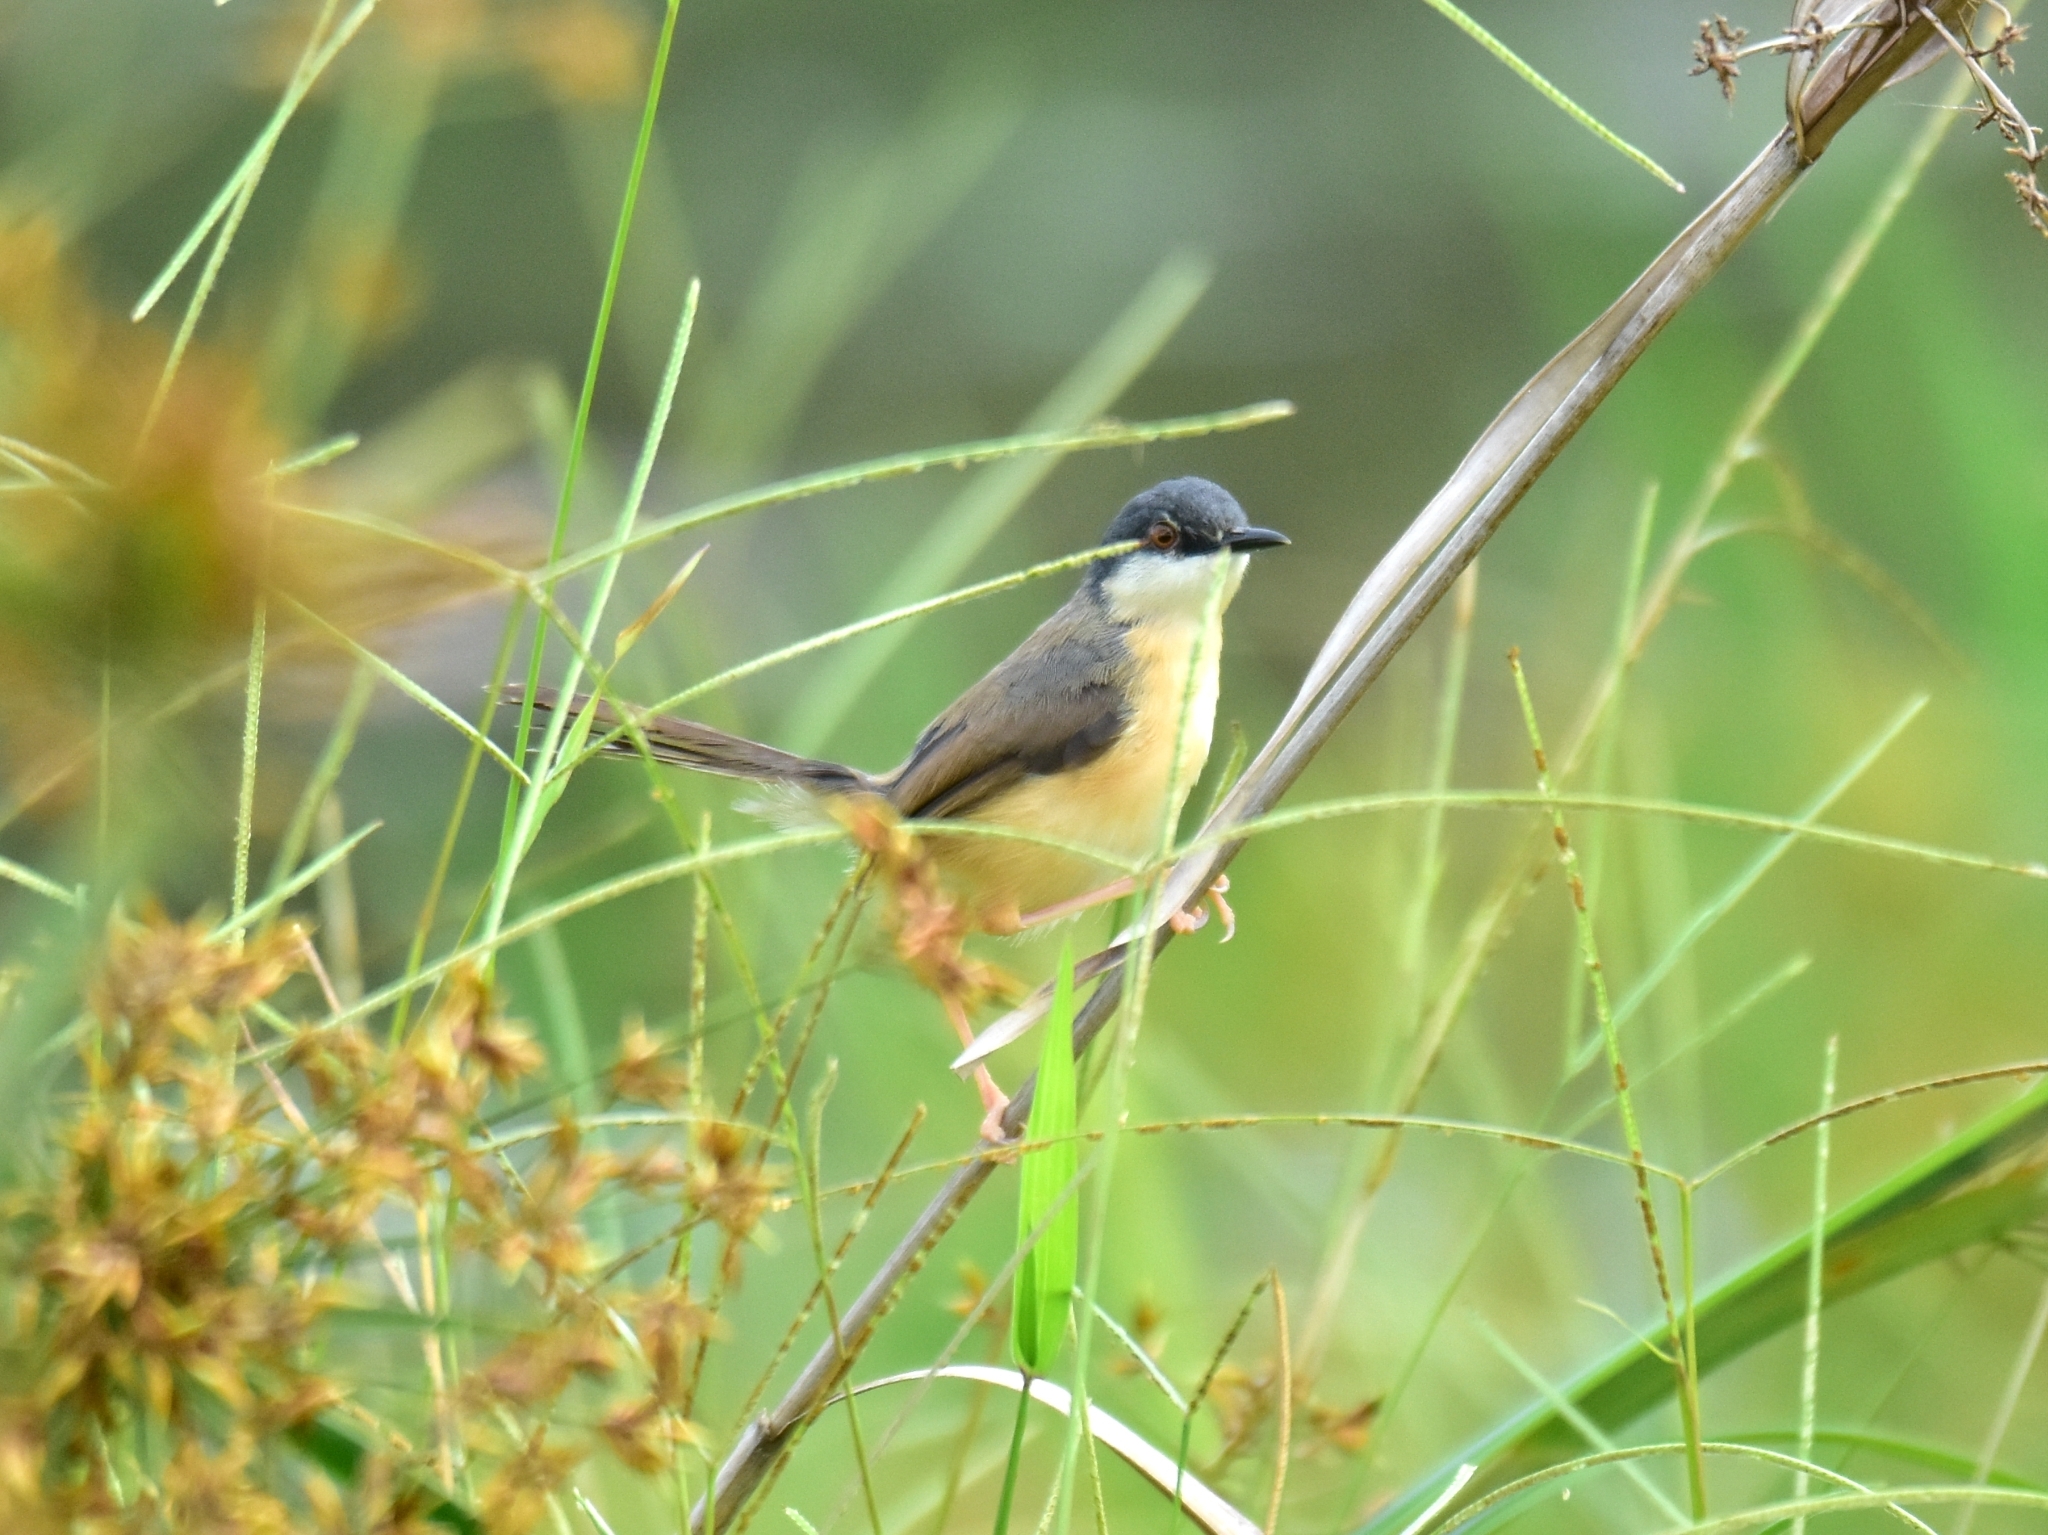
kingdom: Animalia
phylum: Chordata
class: Aves
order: Passeriformes
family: Cisticolidae
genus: Prinia
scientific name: Prinia socialis
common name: Ashy prinia
